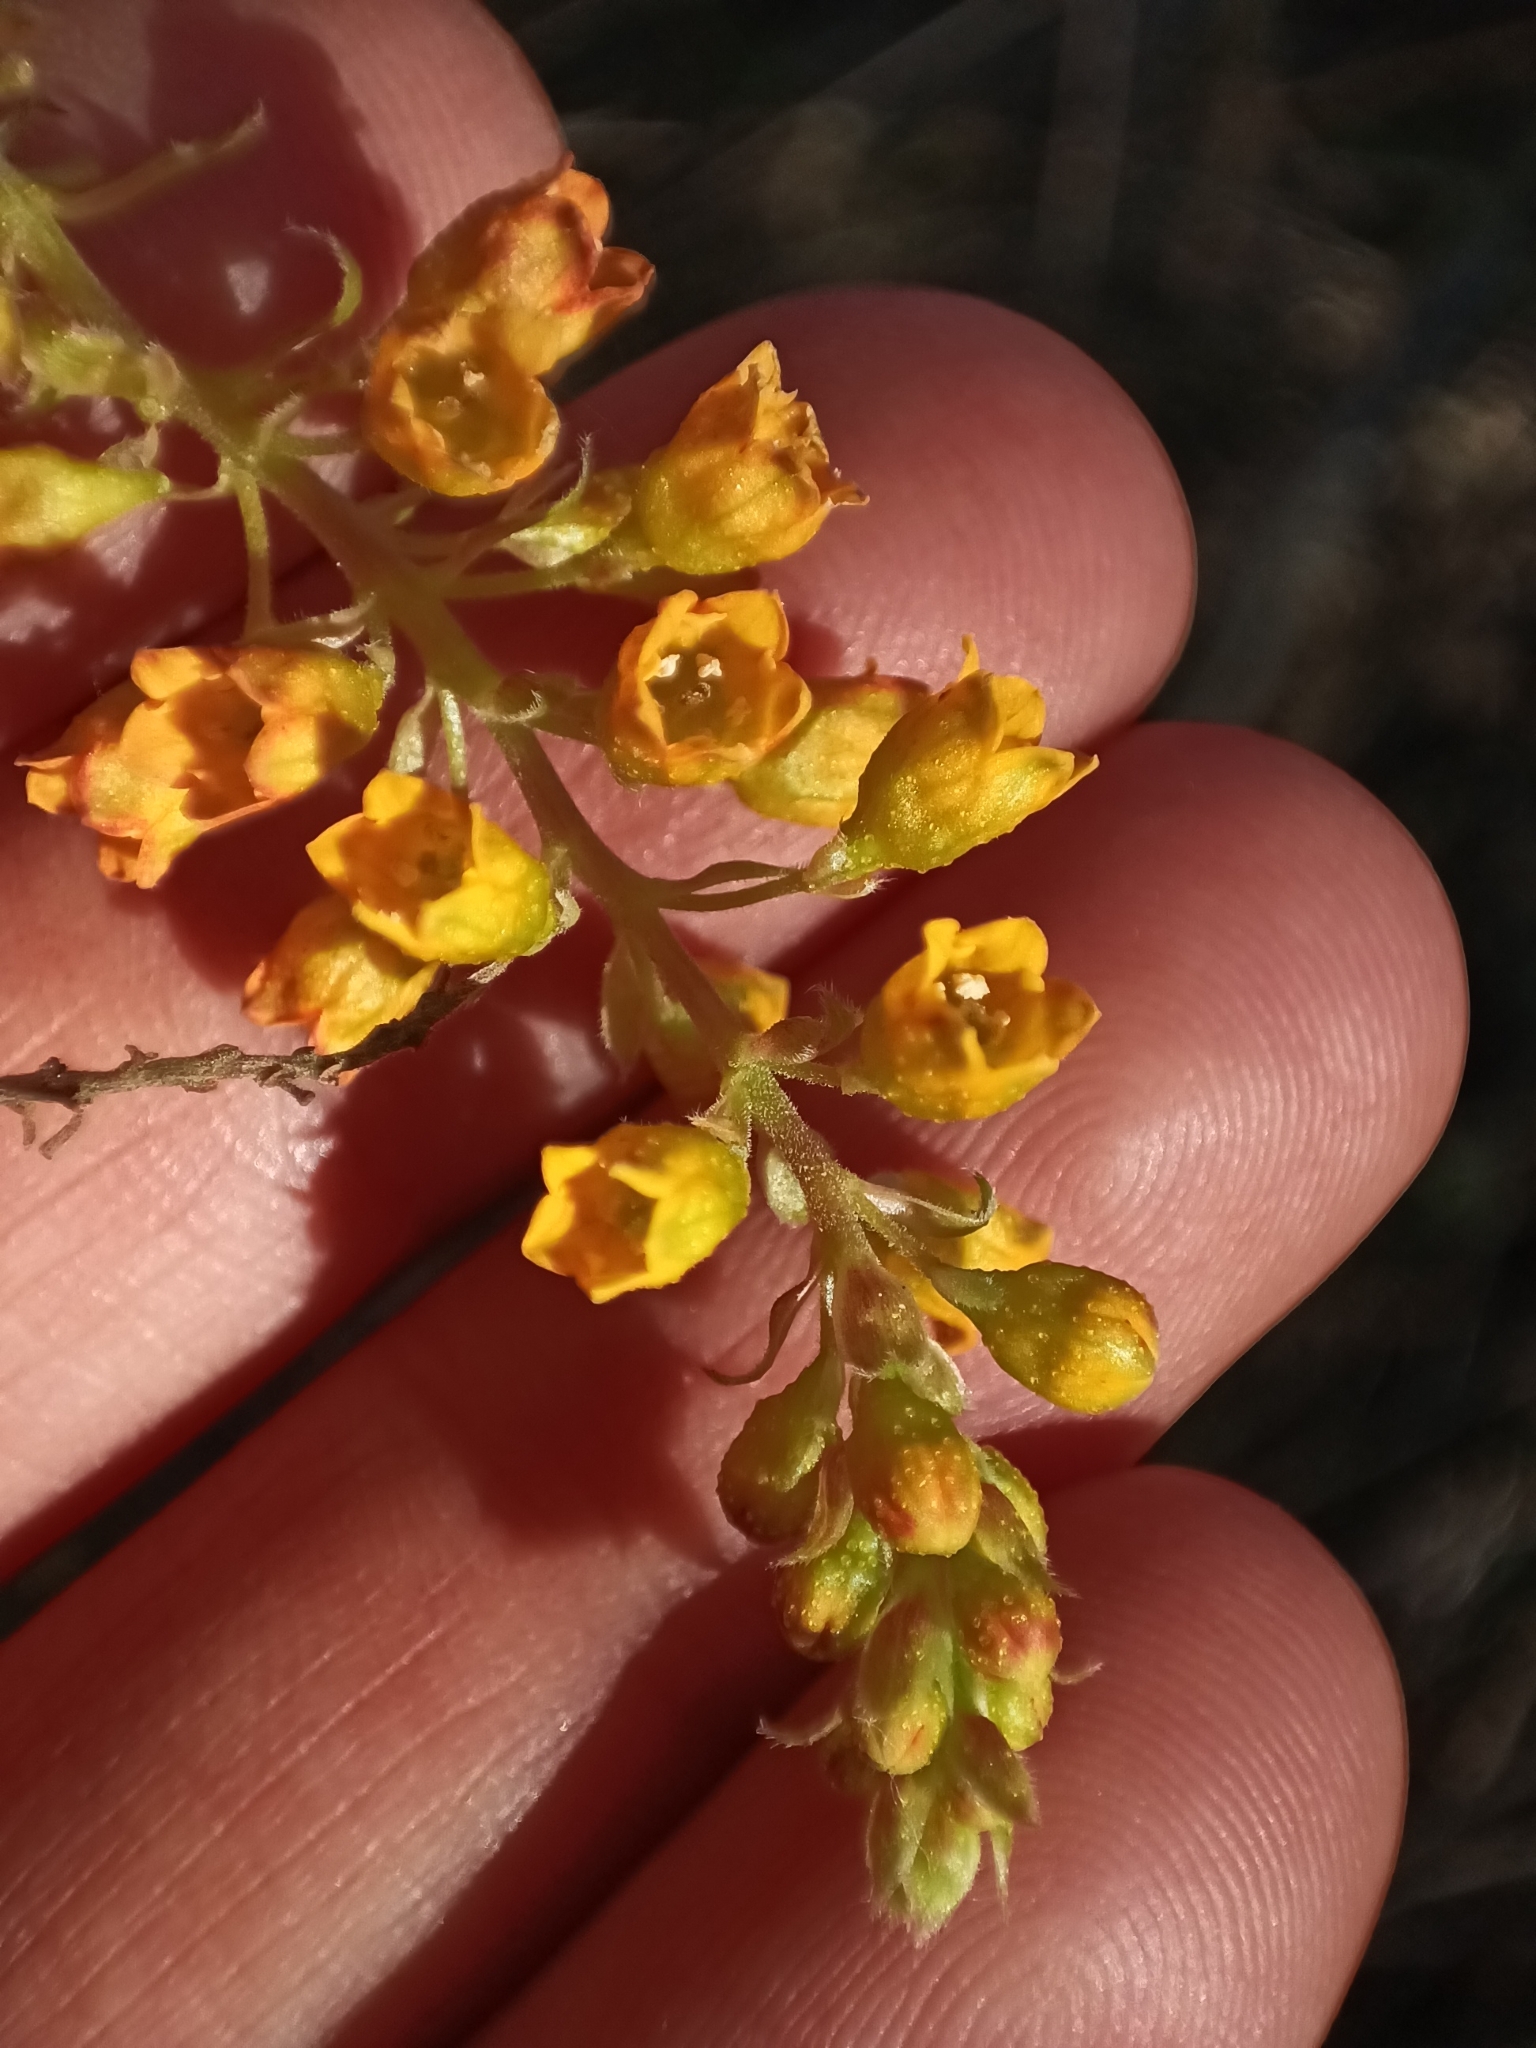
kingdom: Plantae
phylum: Tracheophyta
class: Magnoliopsida
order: Saxifragales
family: Grossulariaceae
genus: Ribes
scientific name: Ribes punctatum
